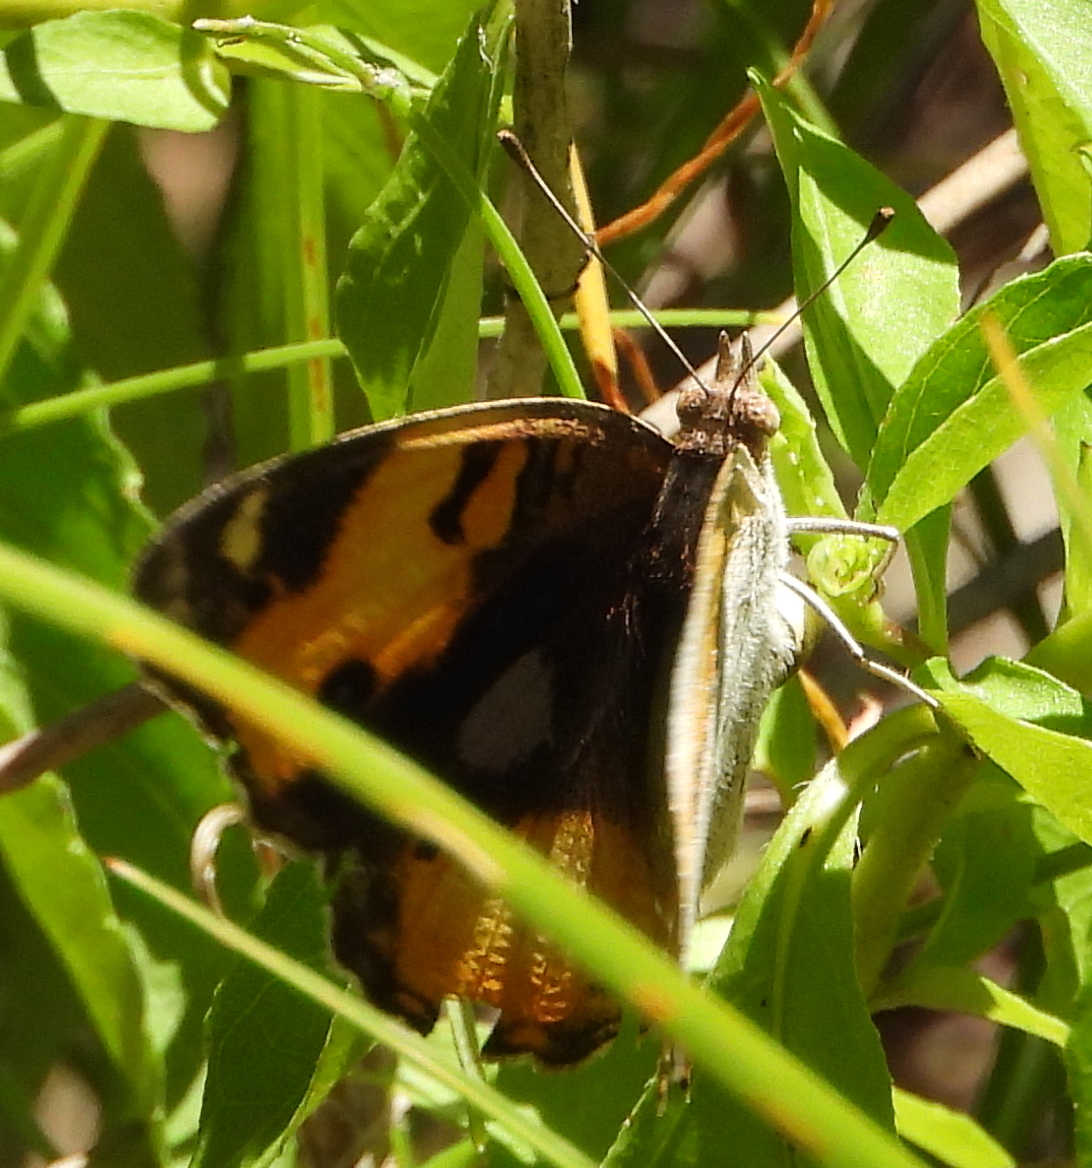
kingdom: Animalia
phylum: Arthropoda
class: Insecta
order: Lepidoptera
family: Nymphalidae
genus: Junonia
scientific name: Junonia hierta
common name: Yellow pansy
